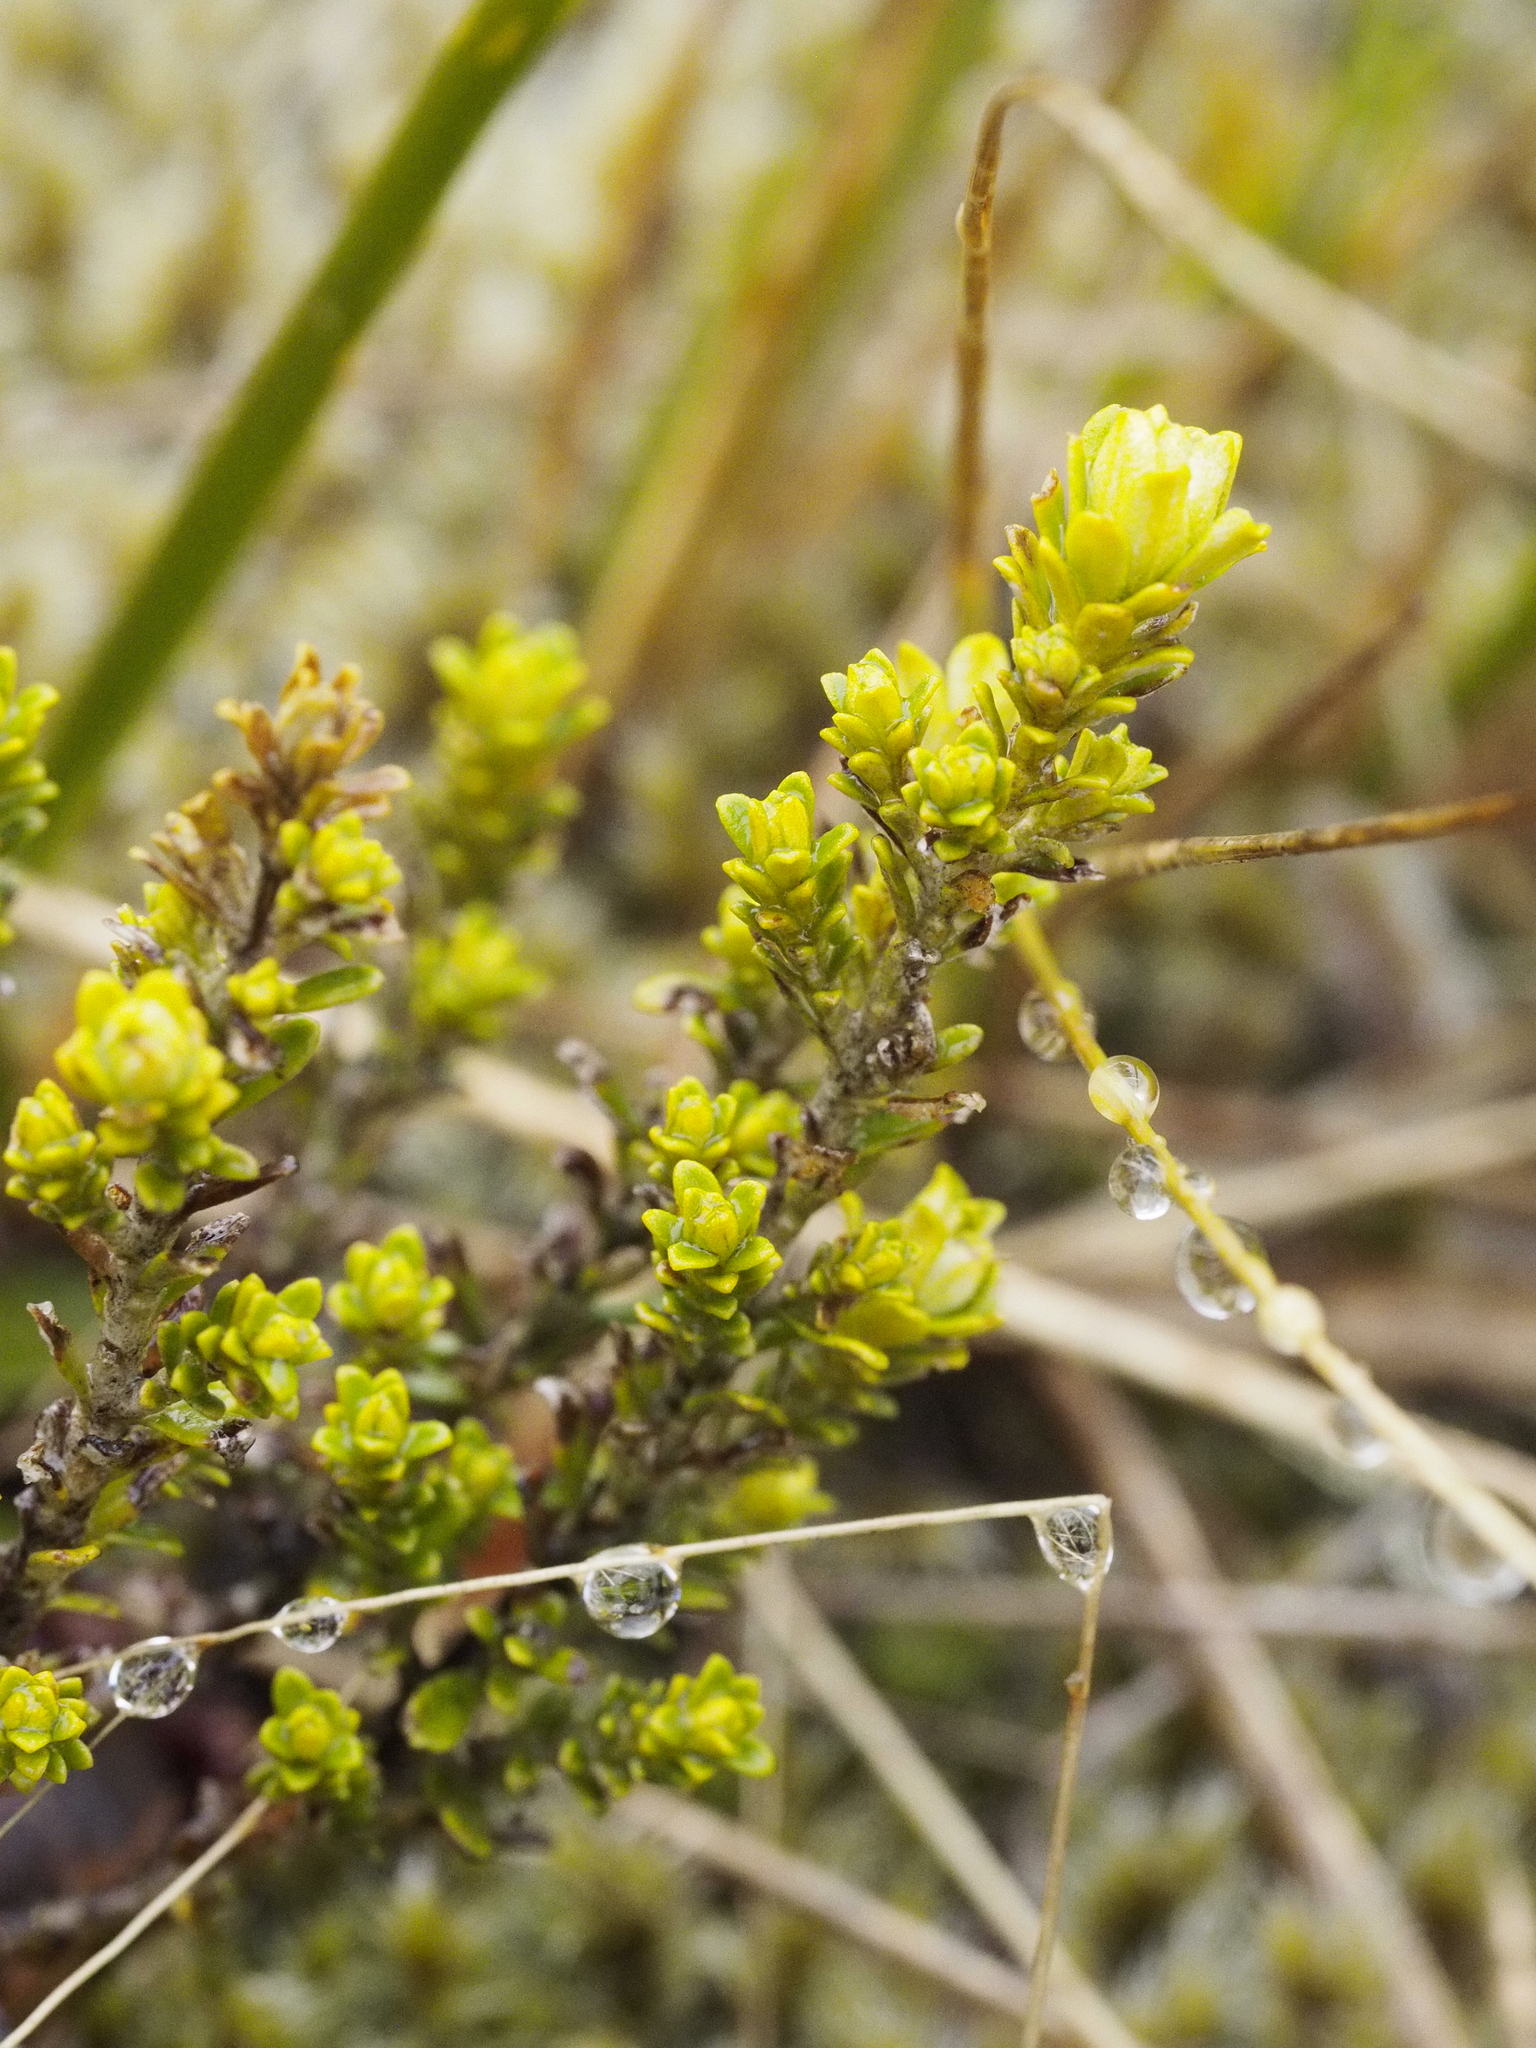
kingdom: Plantae
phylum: Tracheophyta
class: Magnoliopsida
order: Asterales
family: Asteraceae
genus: Ozothamnus
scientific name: Ozothamnus leptophyllus
